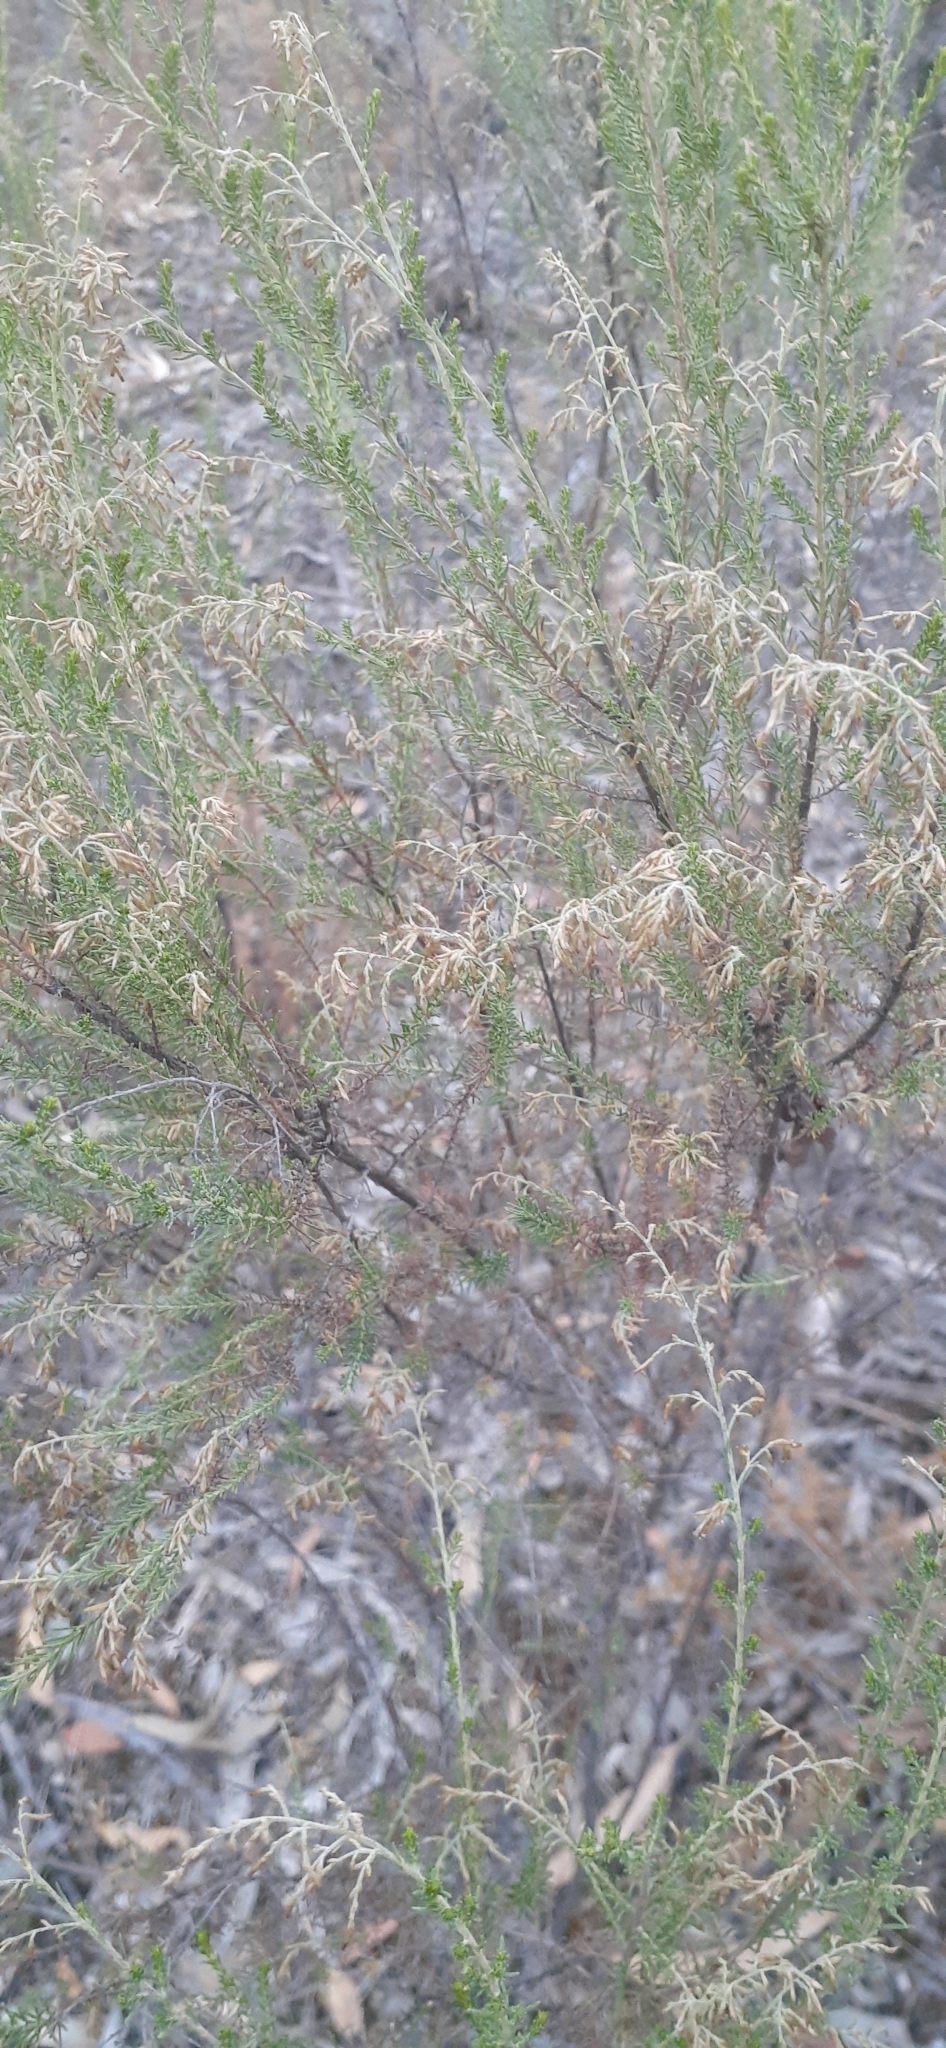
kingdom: Plantae
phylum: Tracheophyta
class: Magnoliopsida
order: Asterales
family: Asteraceae
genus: Cassinia
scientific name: Cassinia sifton
